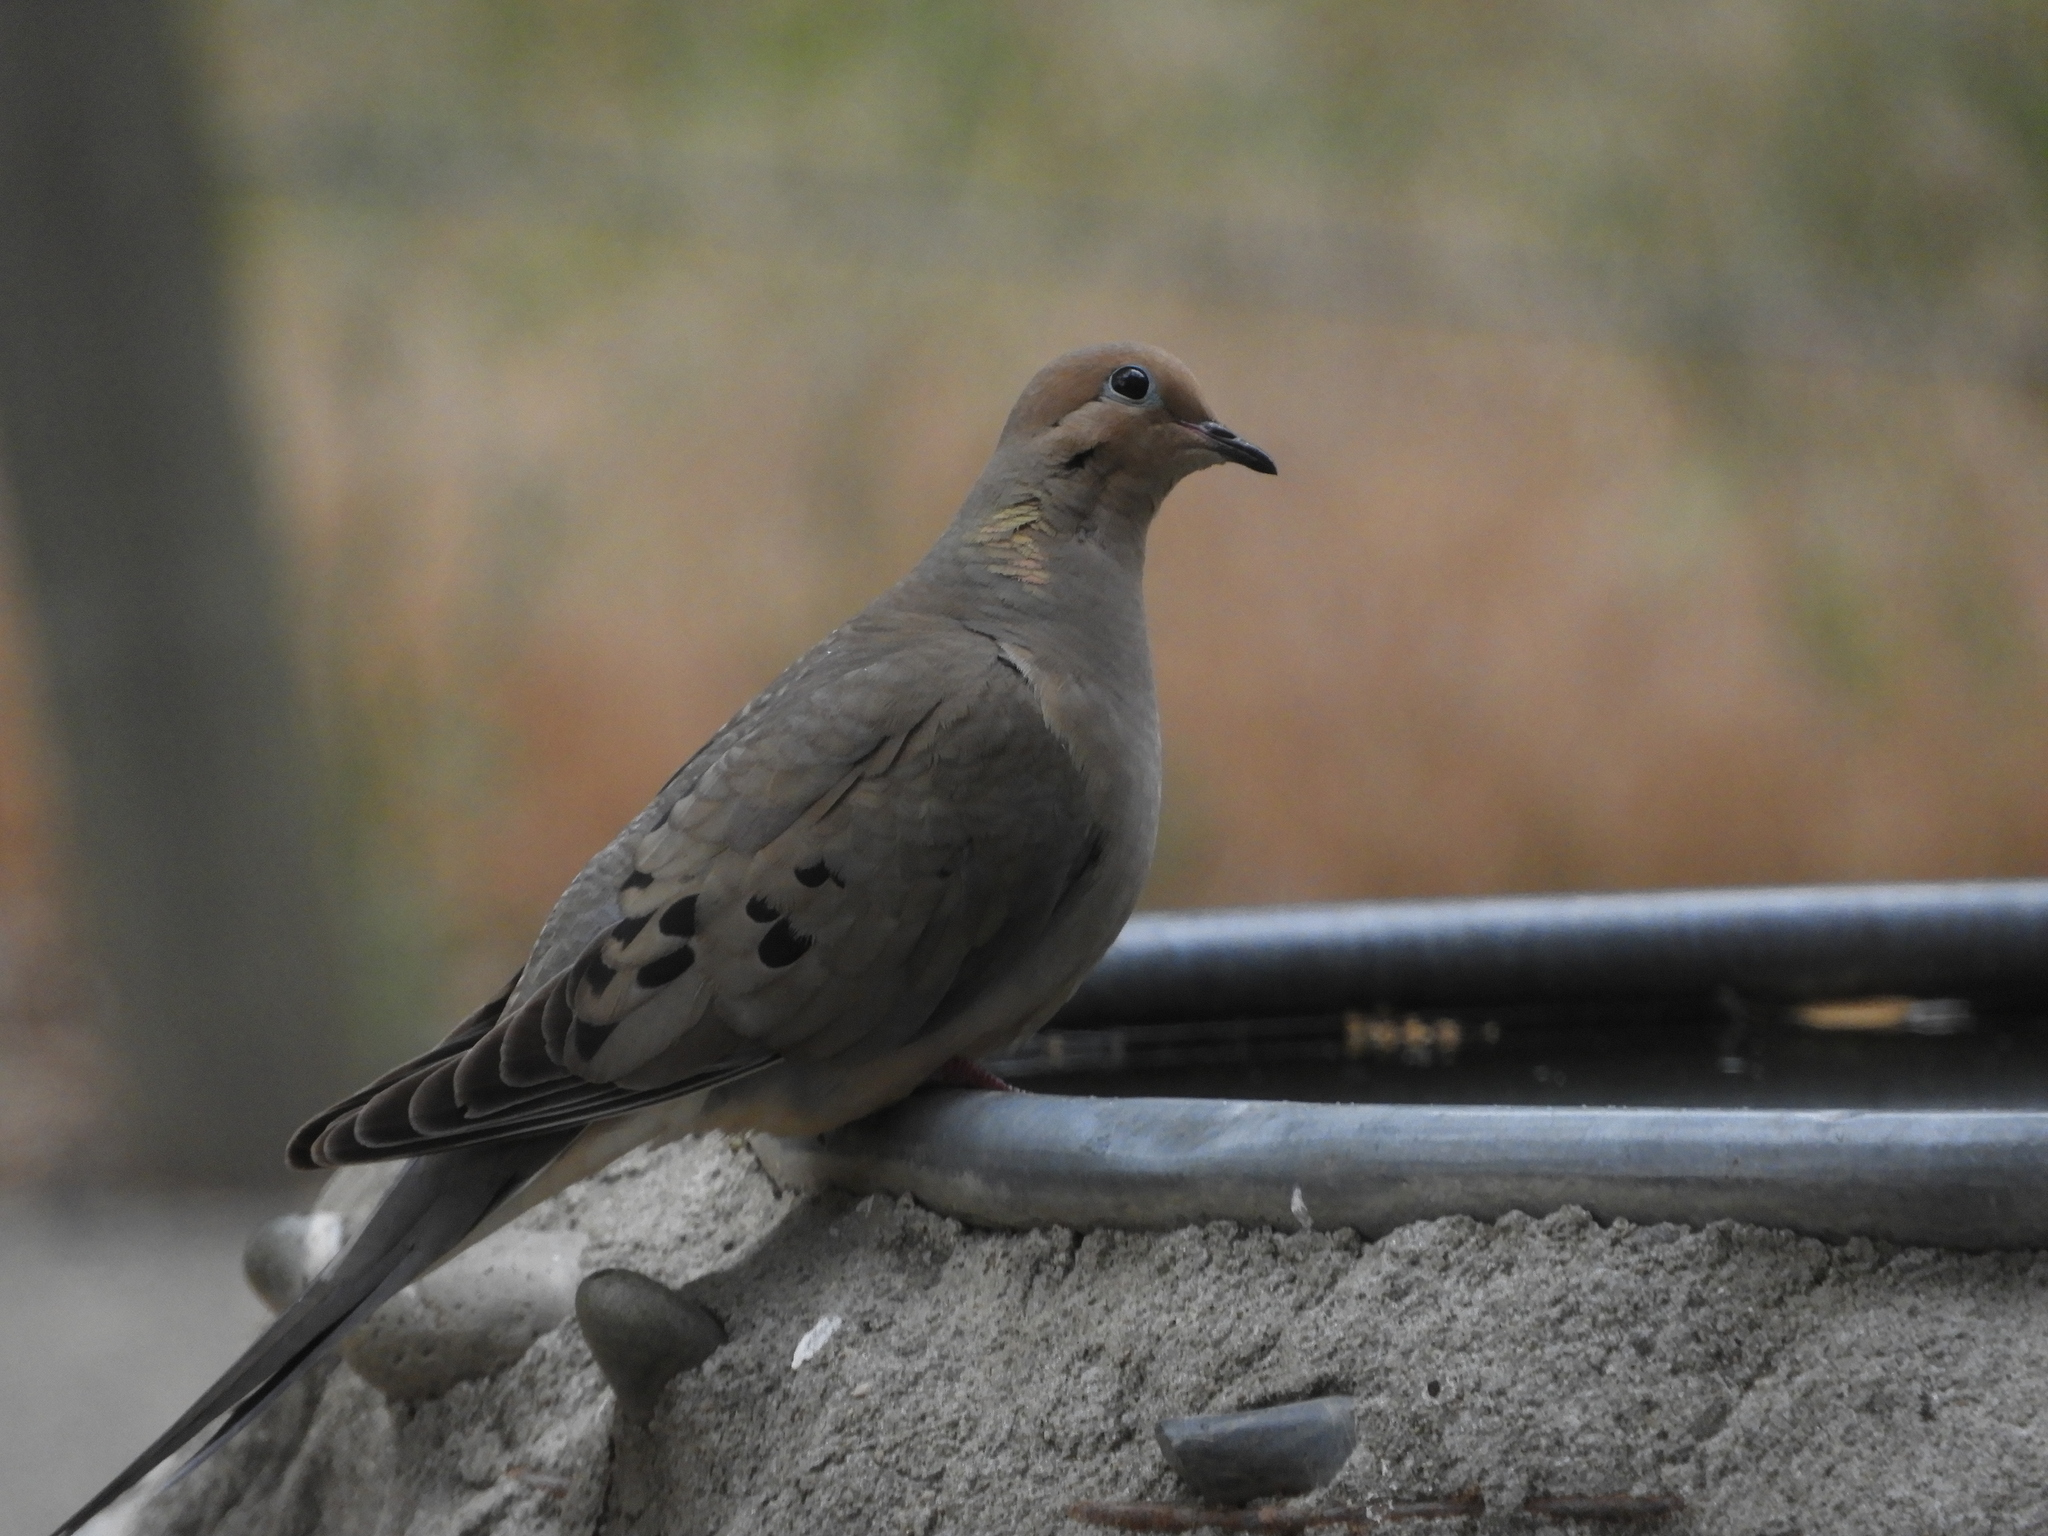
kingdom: Animalia
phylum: Chordata
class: Aves
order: Columbiformes
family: Columbidae
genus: Zenaida
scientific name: Zenaida macroura
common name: Mourning dove
